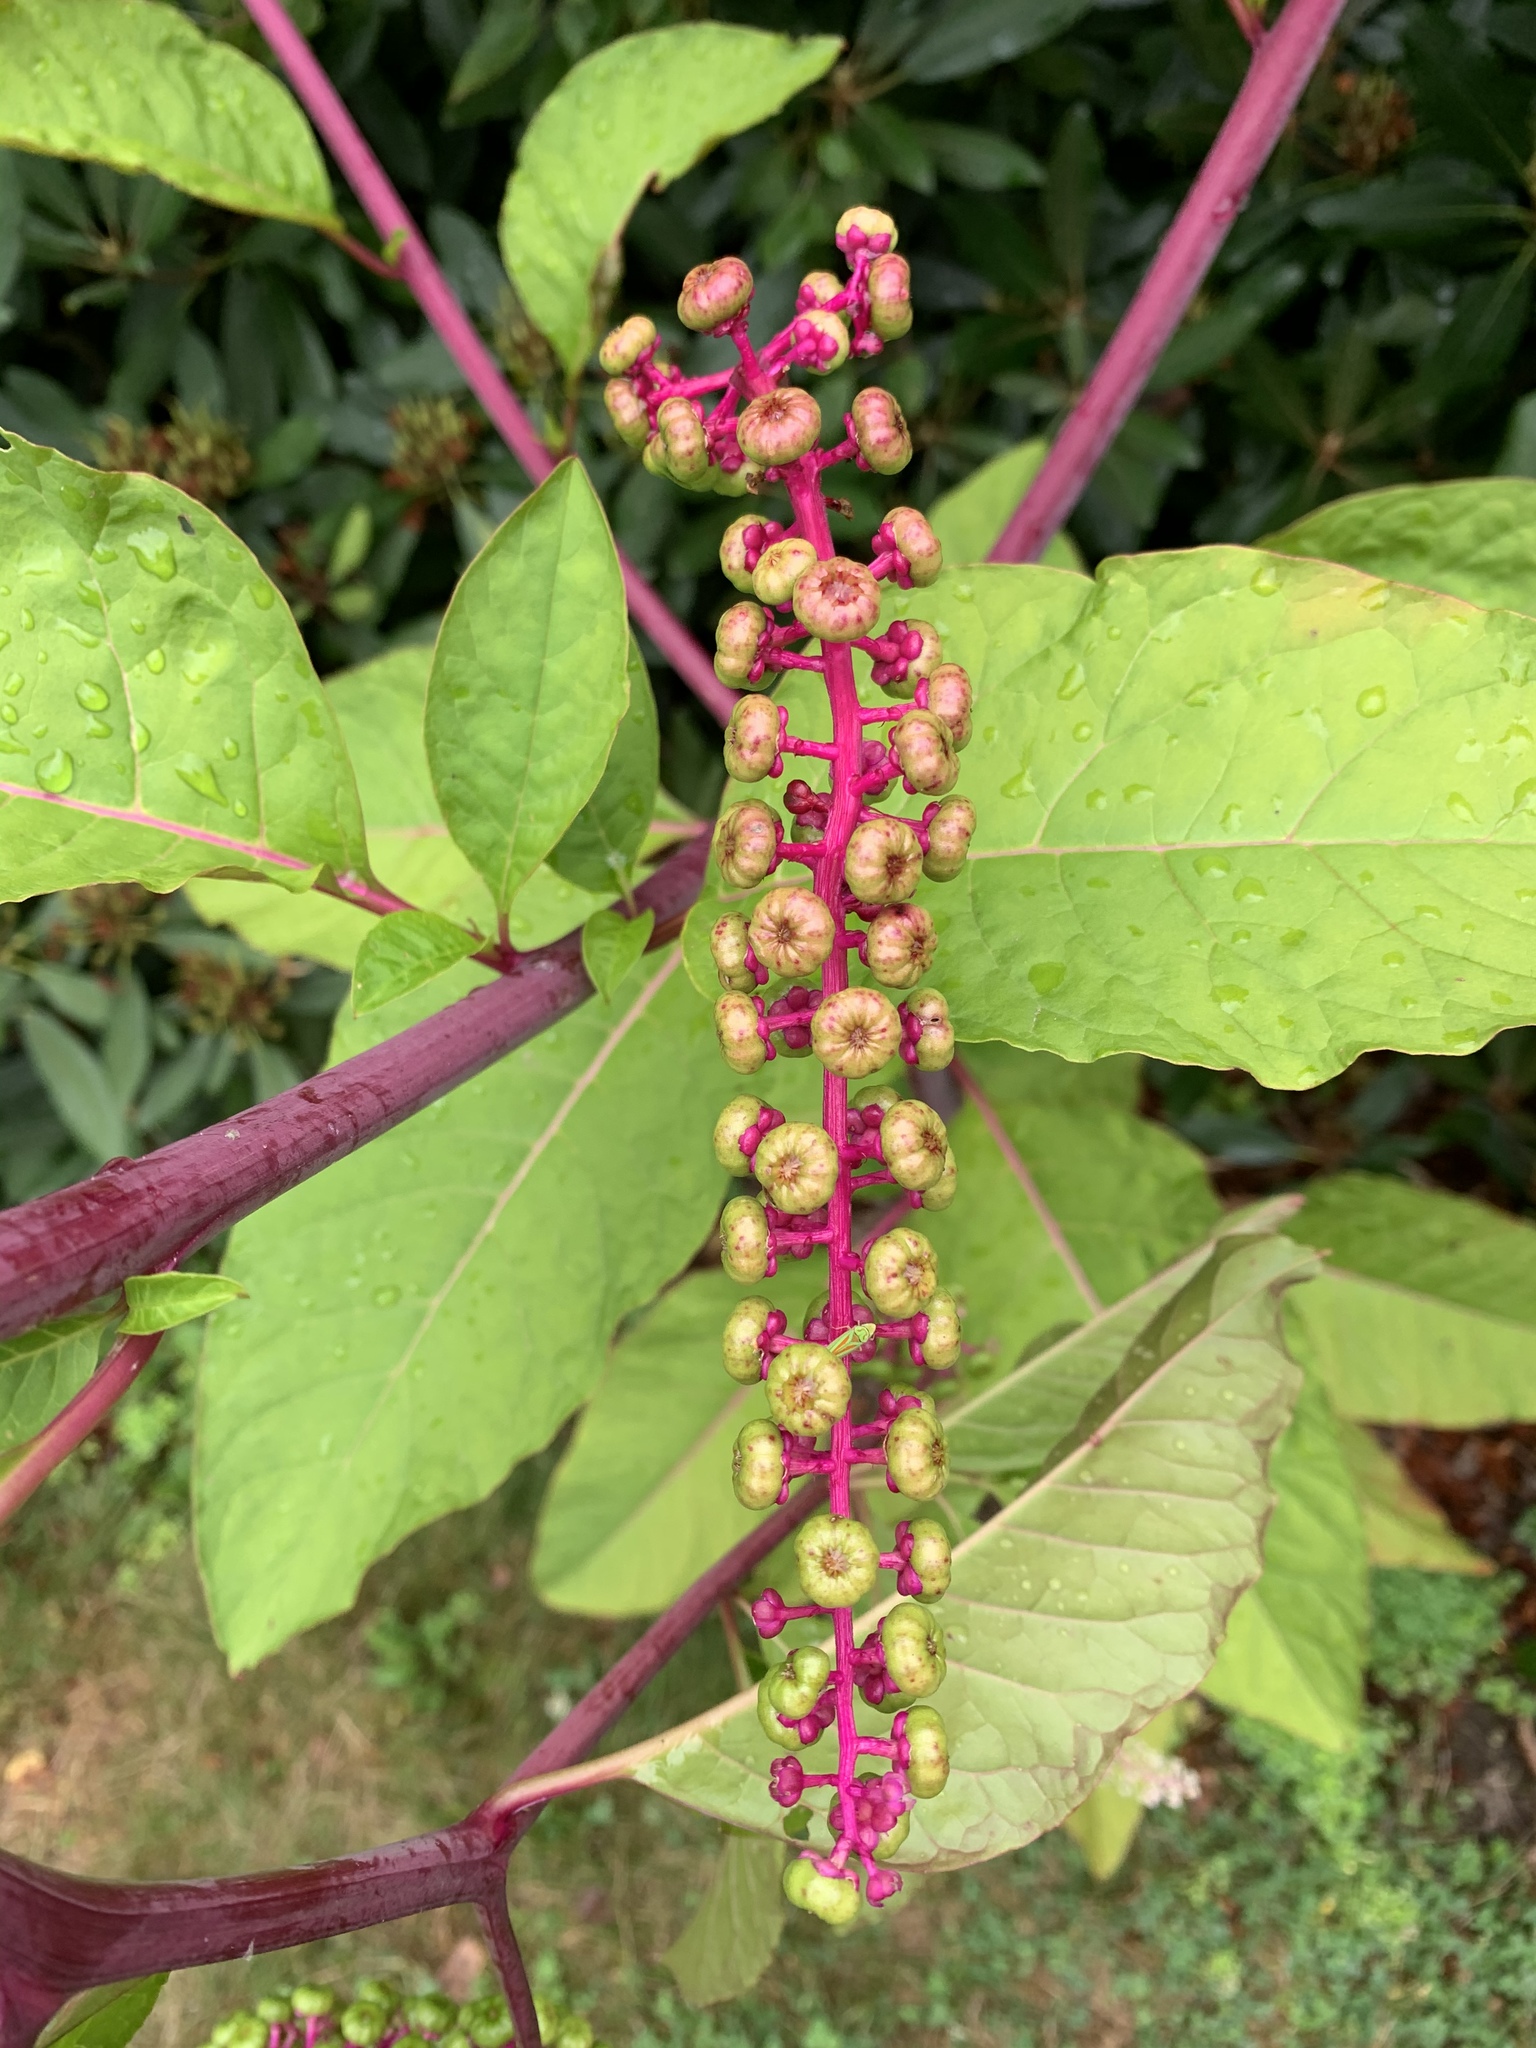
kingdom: Plantae
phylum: Tracheophyta
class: Magnoliopsida
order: Caryophyllales
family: Phytolaccaceae
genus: Phytolacca
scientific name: Phytolacca americana
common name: American pokeweed
